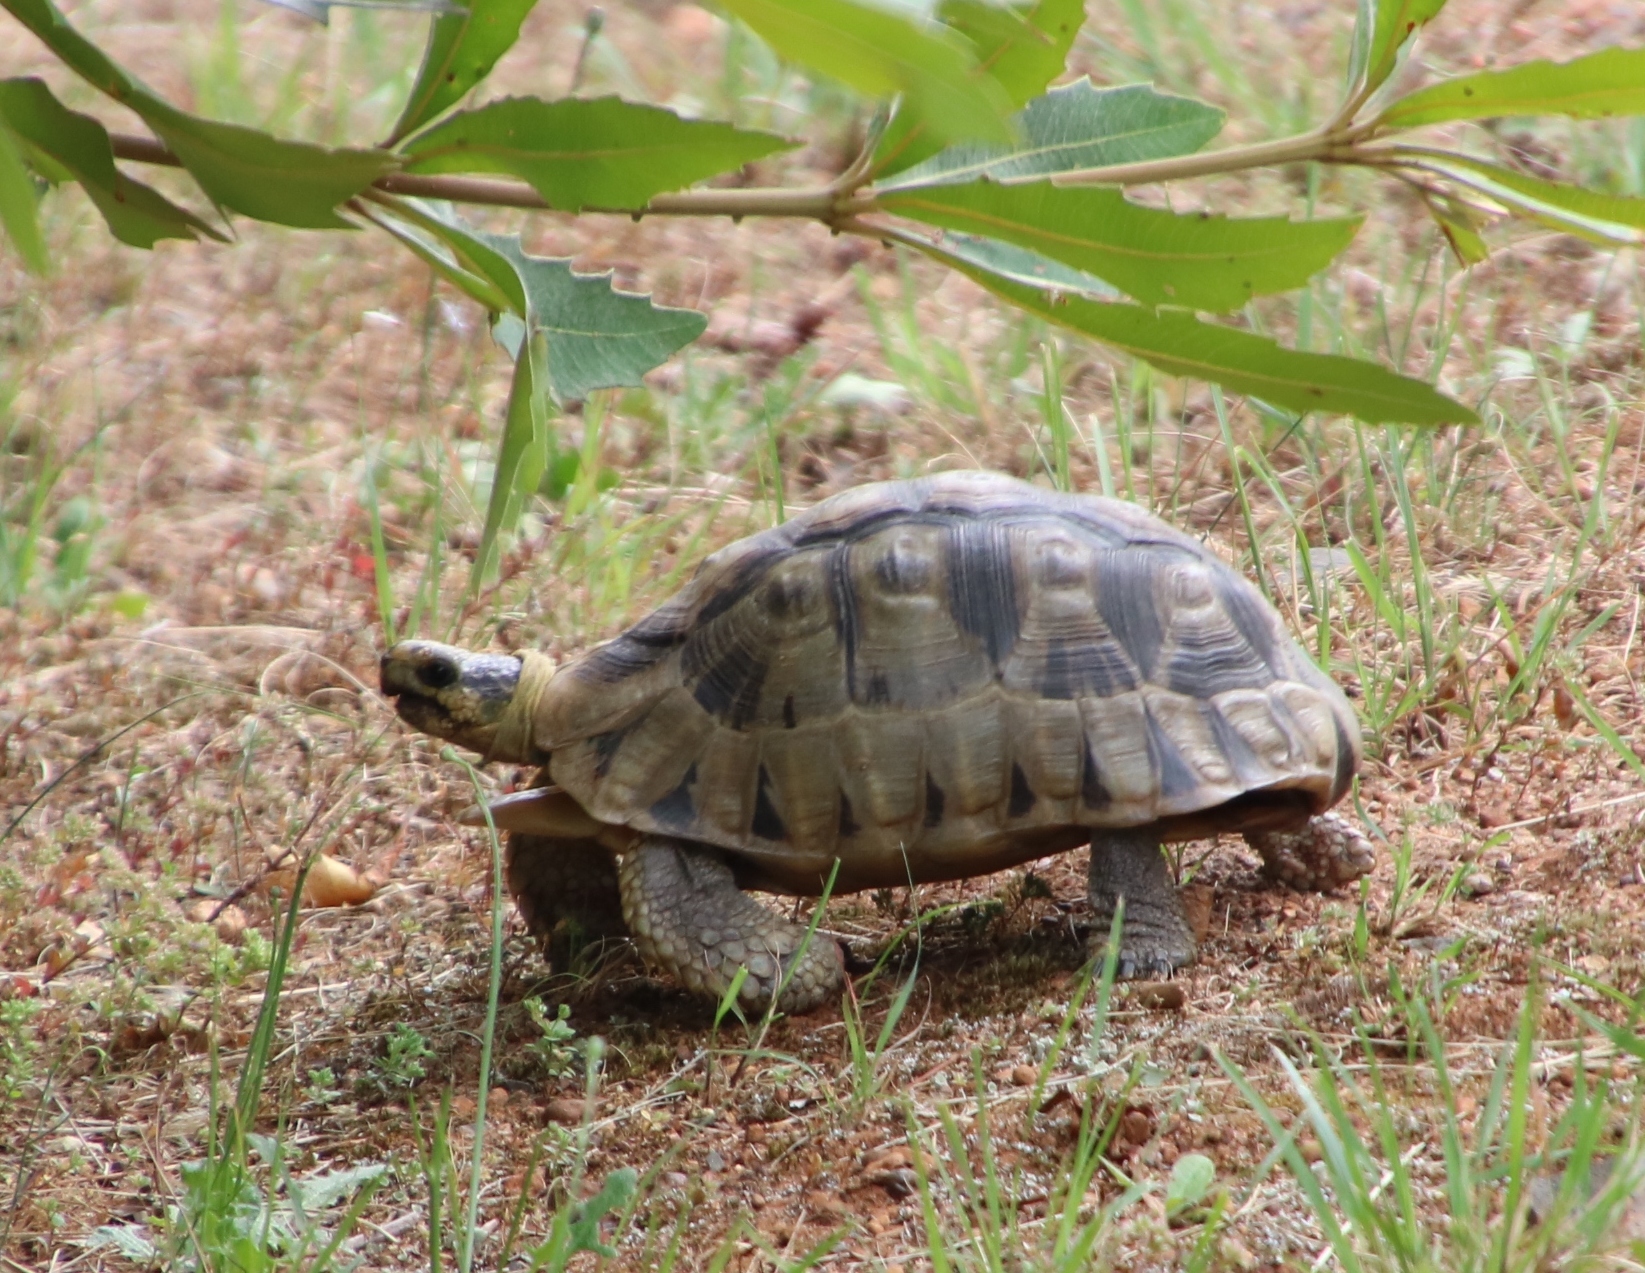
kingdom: Animalia
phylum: Chordata
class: Testudines
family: Testudinidae
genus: Chersina
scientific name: Chersina angulata
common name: South african bowsprit tortoise
